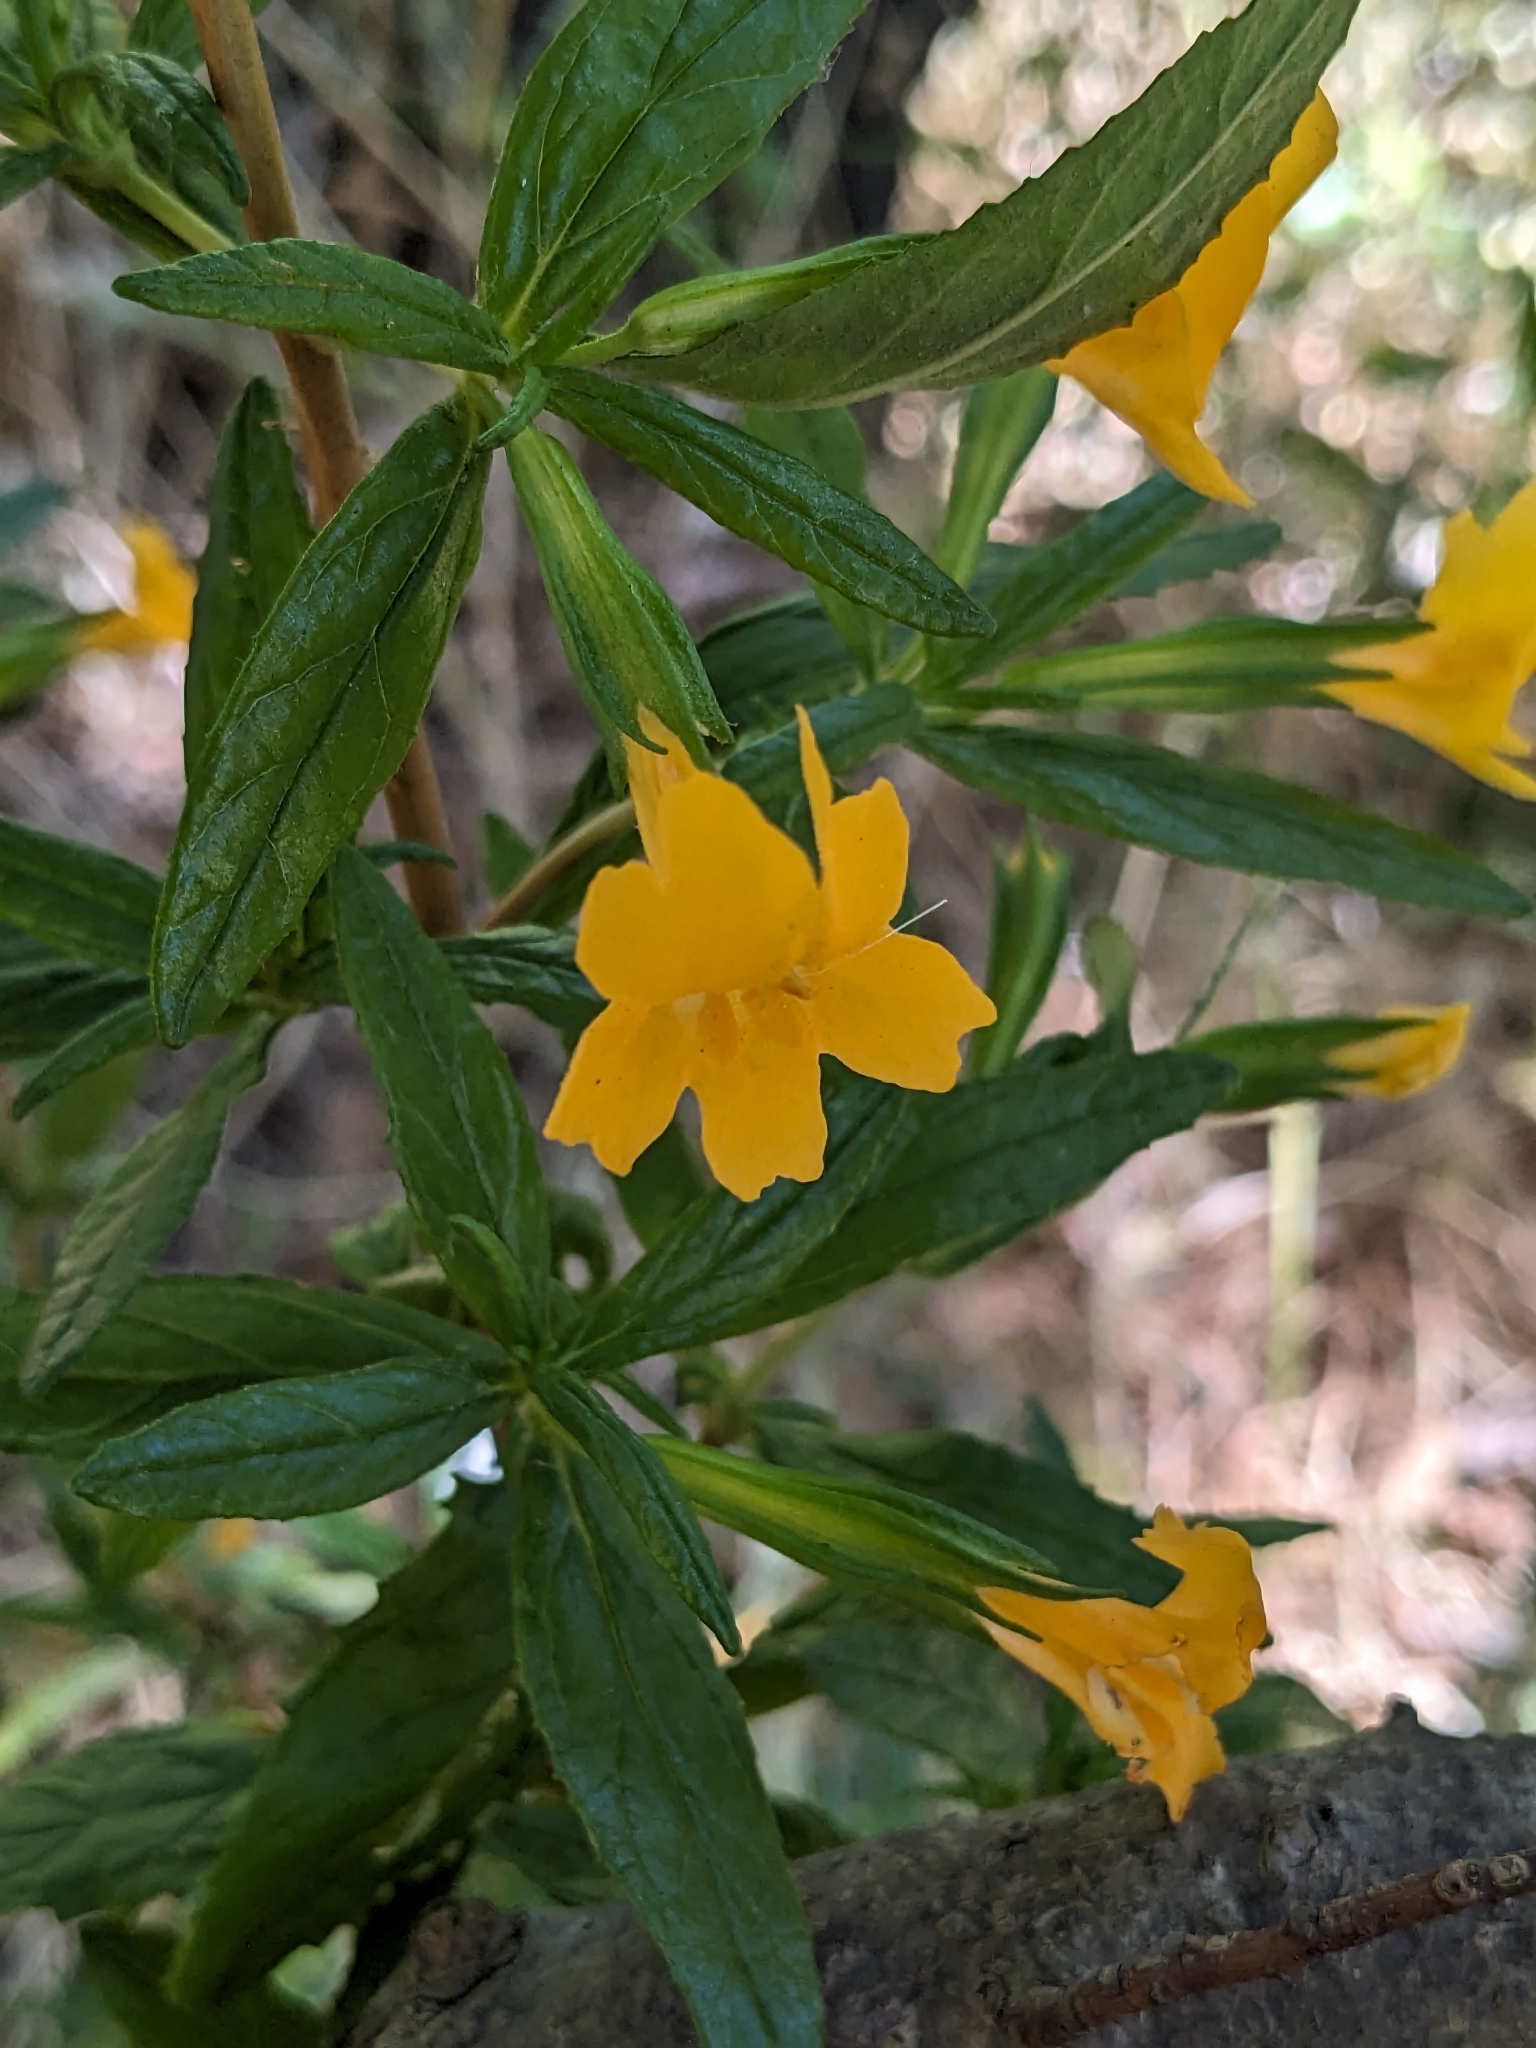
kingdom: Plantae
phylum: Tracheophyta
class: Magnoliopsida
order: Lamiales
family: Phrymaceae
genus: Diplacus
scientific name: Diplacus aurantiacus
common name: Bush monkey-flower
